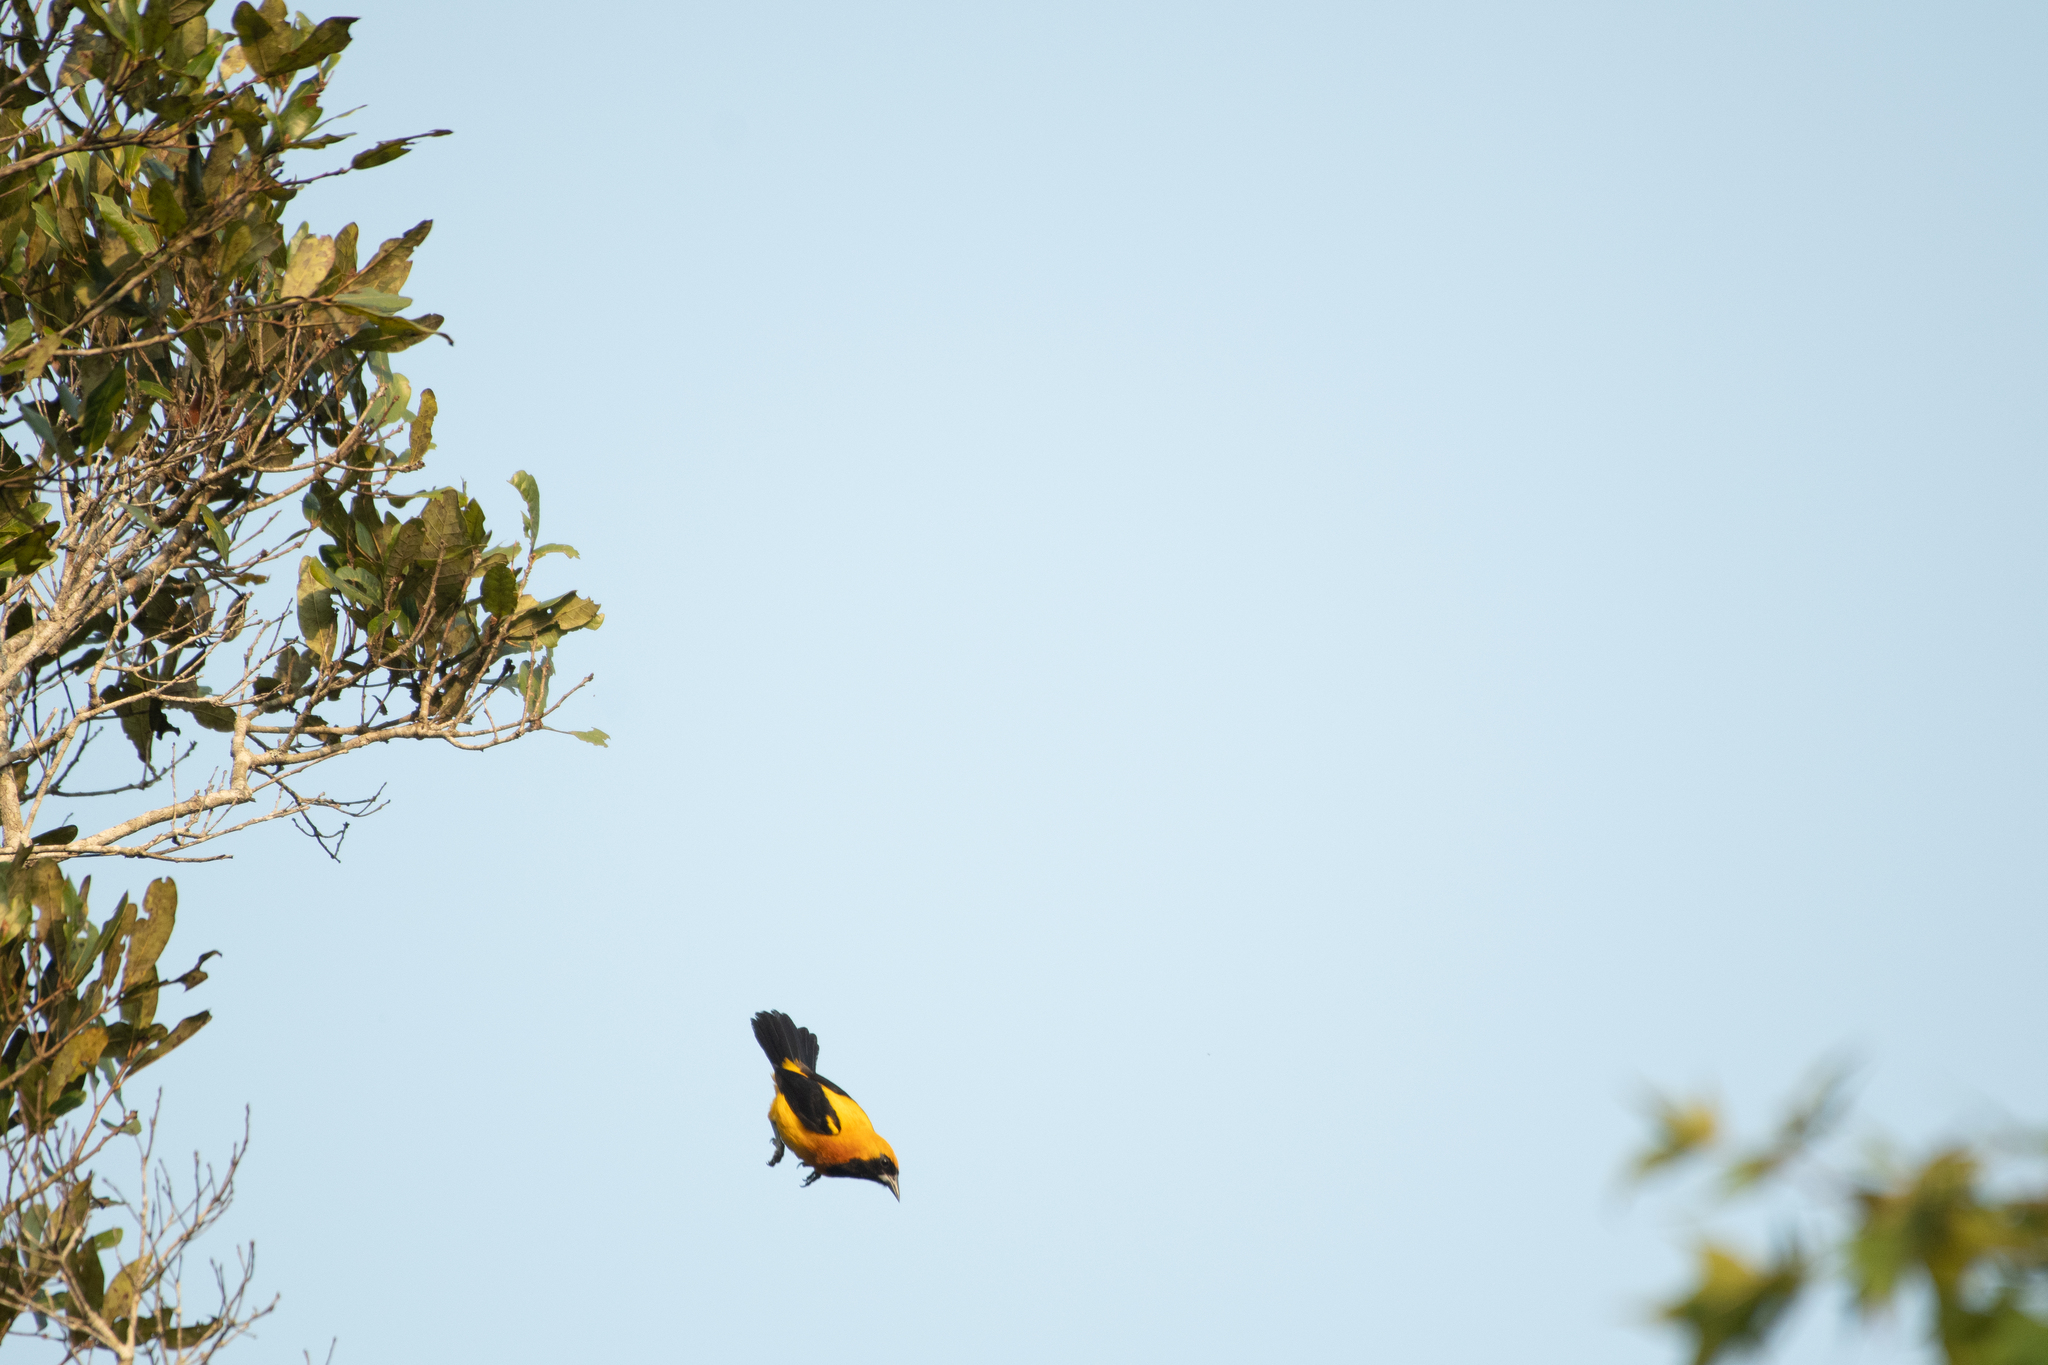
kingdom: Animalia
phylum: Chordata
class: Aves
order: Passeriformes
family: Icteridae
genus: Icterus
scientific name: Icterus chrysater
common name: Yellow-backed oriole
